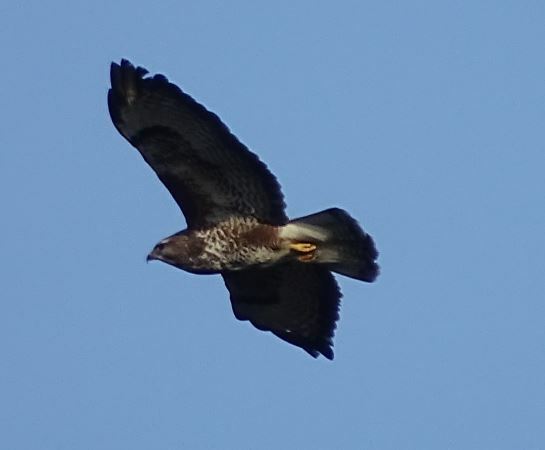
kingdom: Animalia
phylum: Chordata
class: Aves
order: Accipitriformes
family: Accipitridae
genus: Buteo
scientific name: Buteo buteo
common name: Common buzzard
